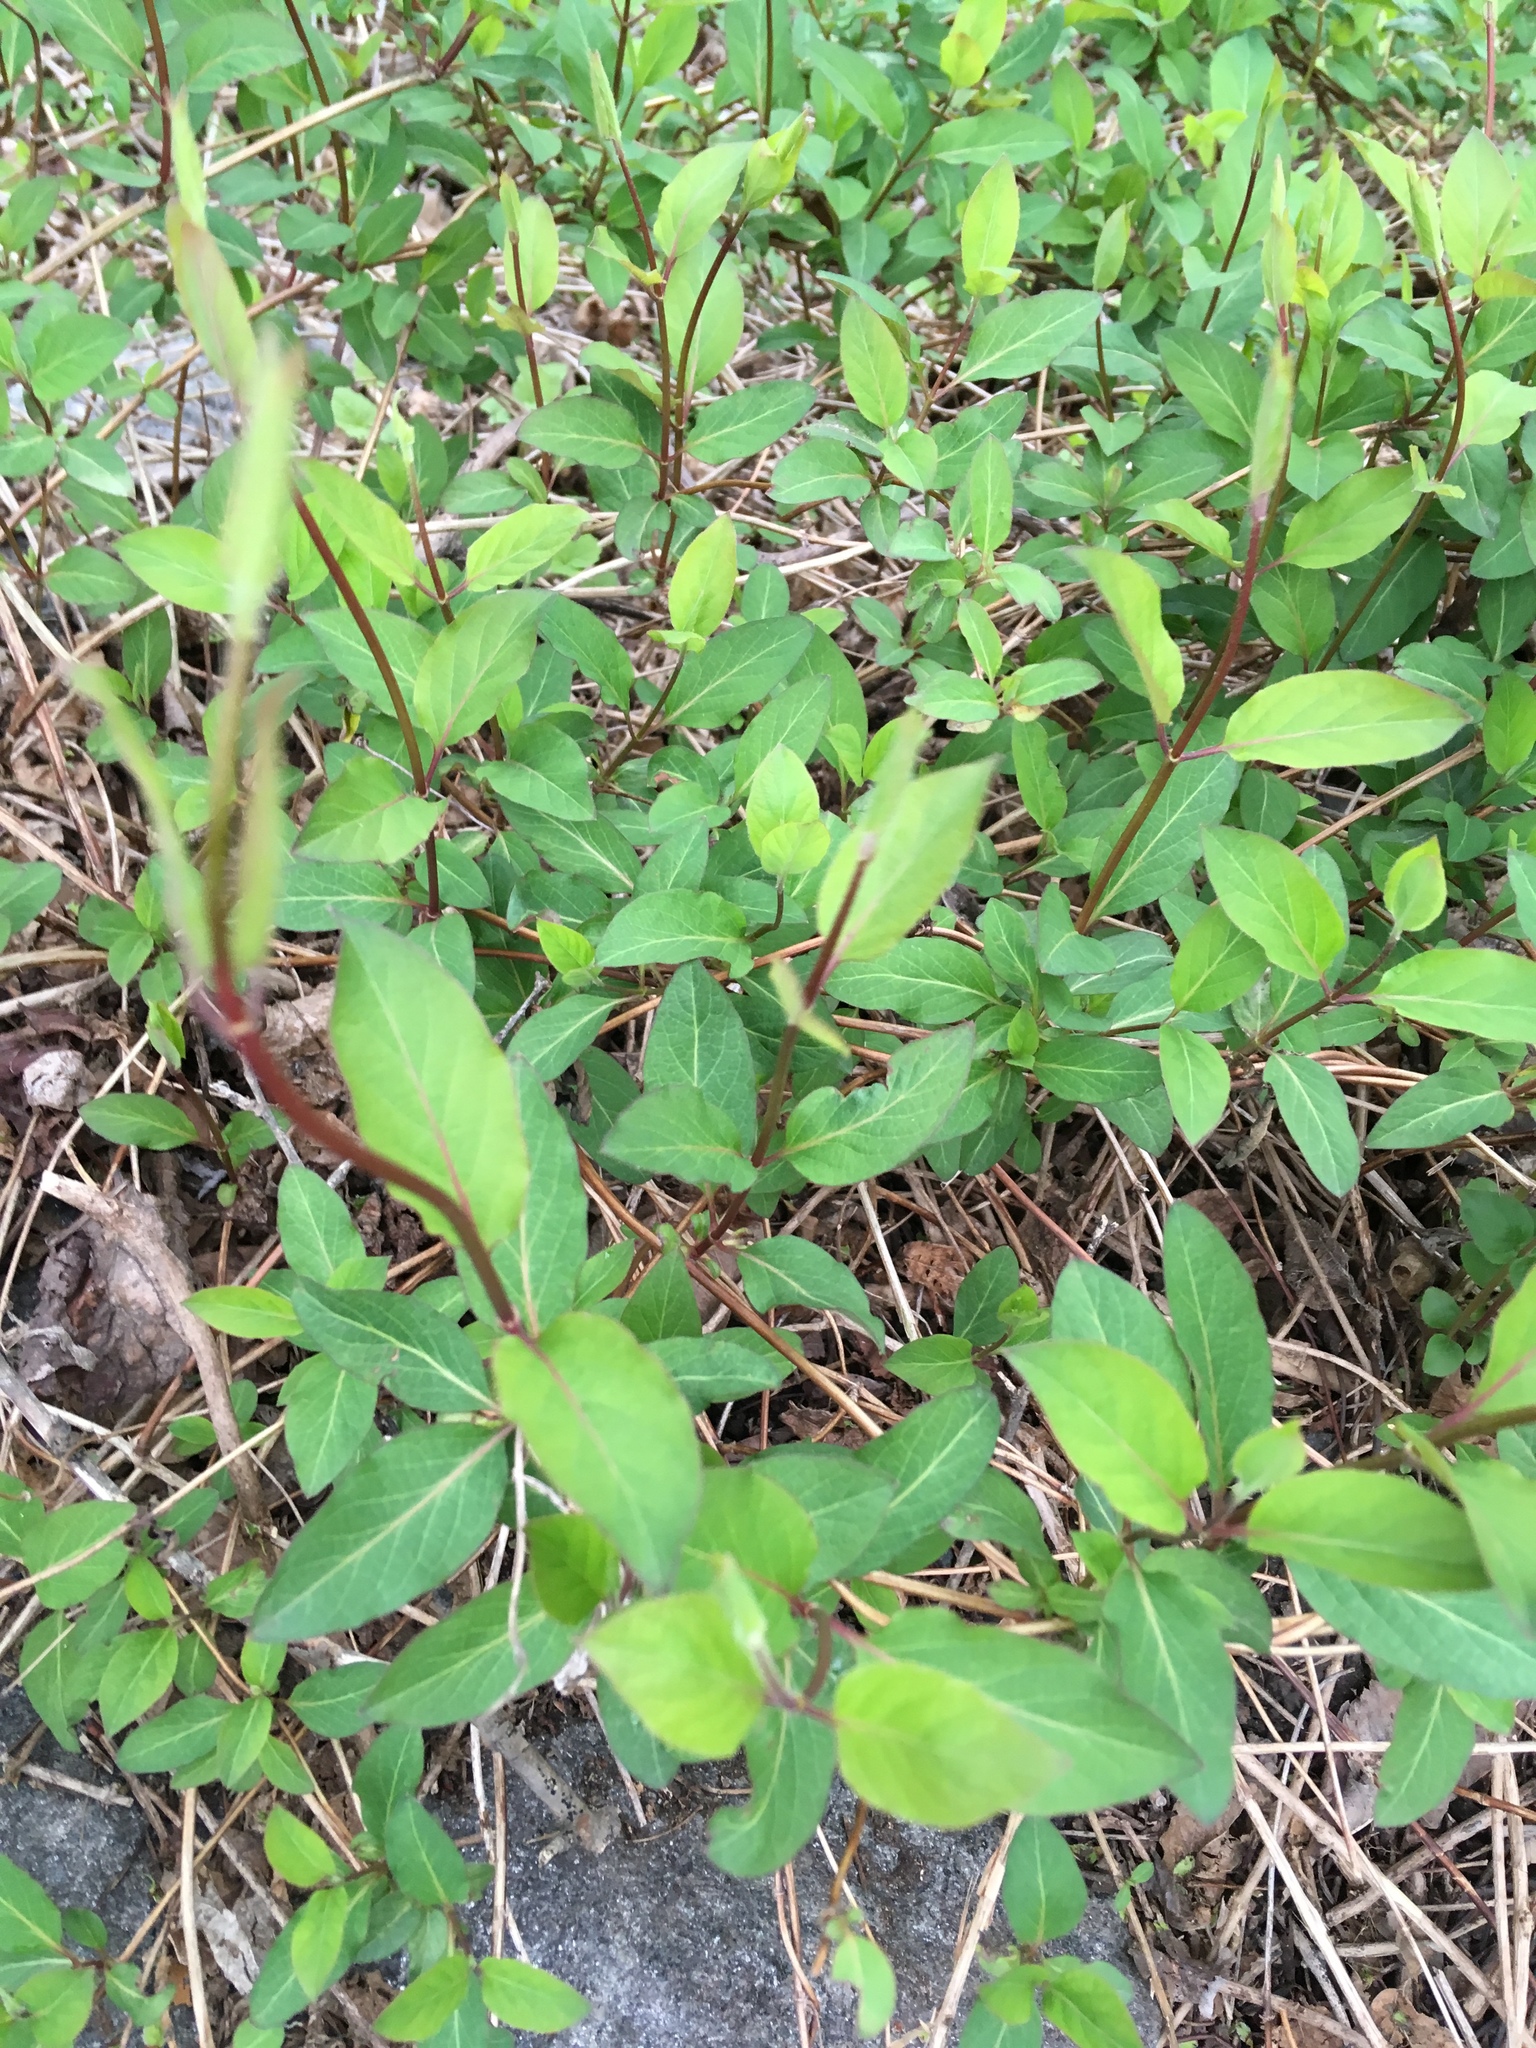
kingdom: Plantae
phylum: Tracheophyta
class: Magnoliopsida
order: Dipsacales
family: Caprifoliaceae
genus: Lonicera
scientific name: Lonicera japonica
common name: Japanese honeysuckle
